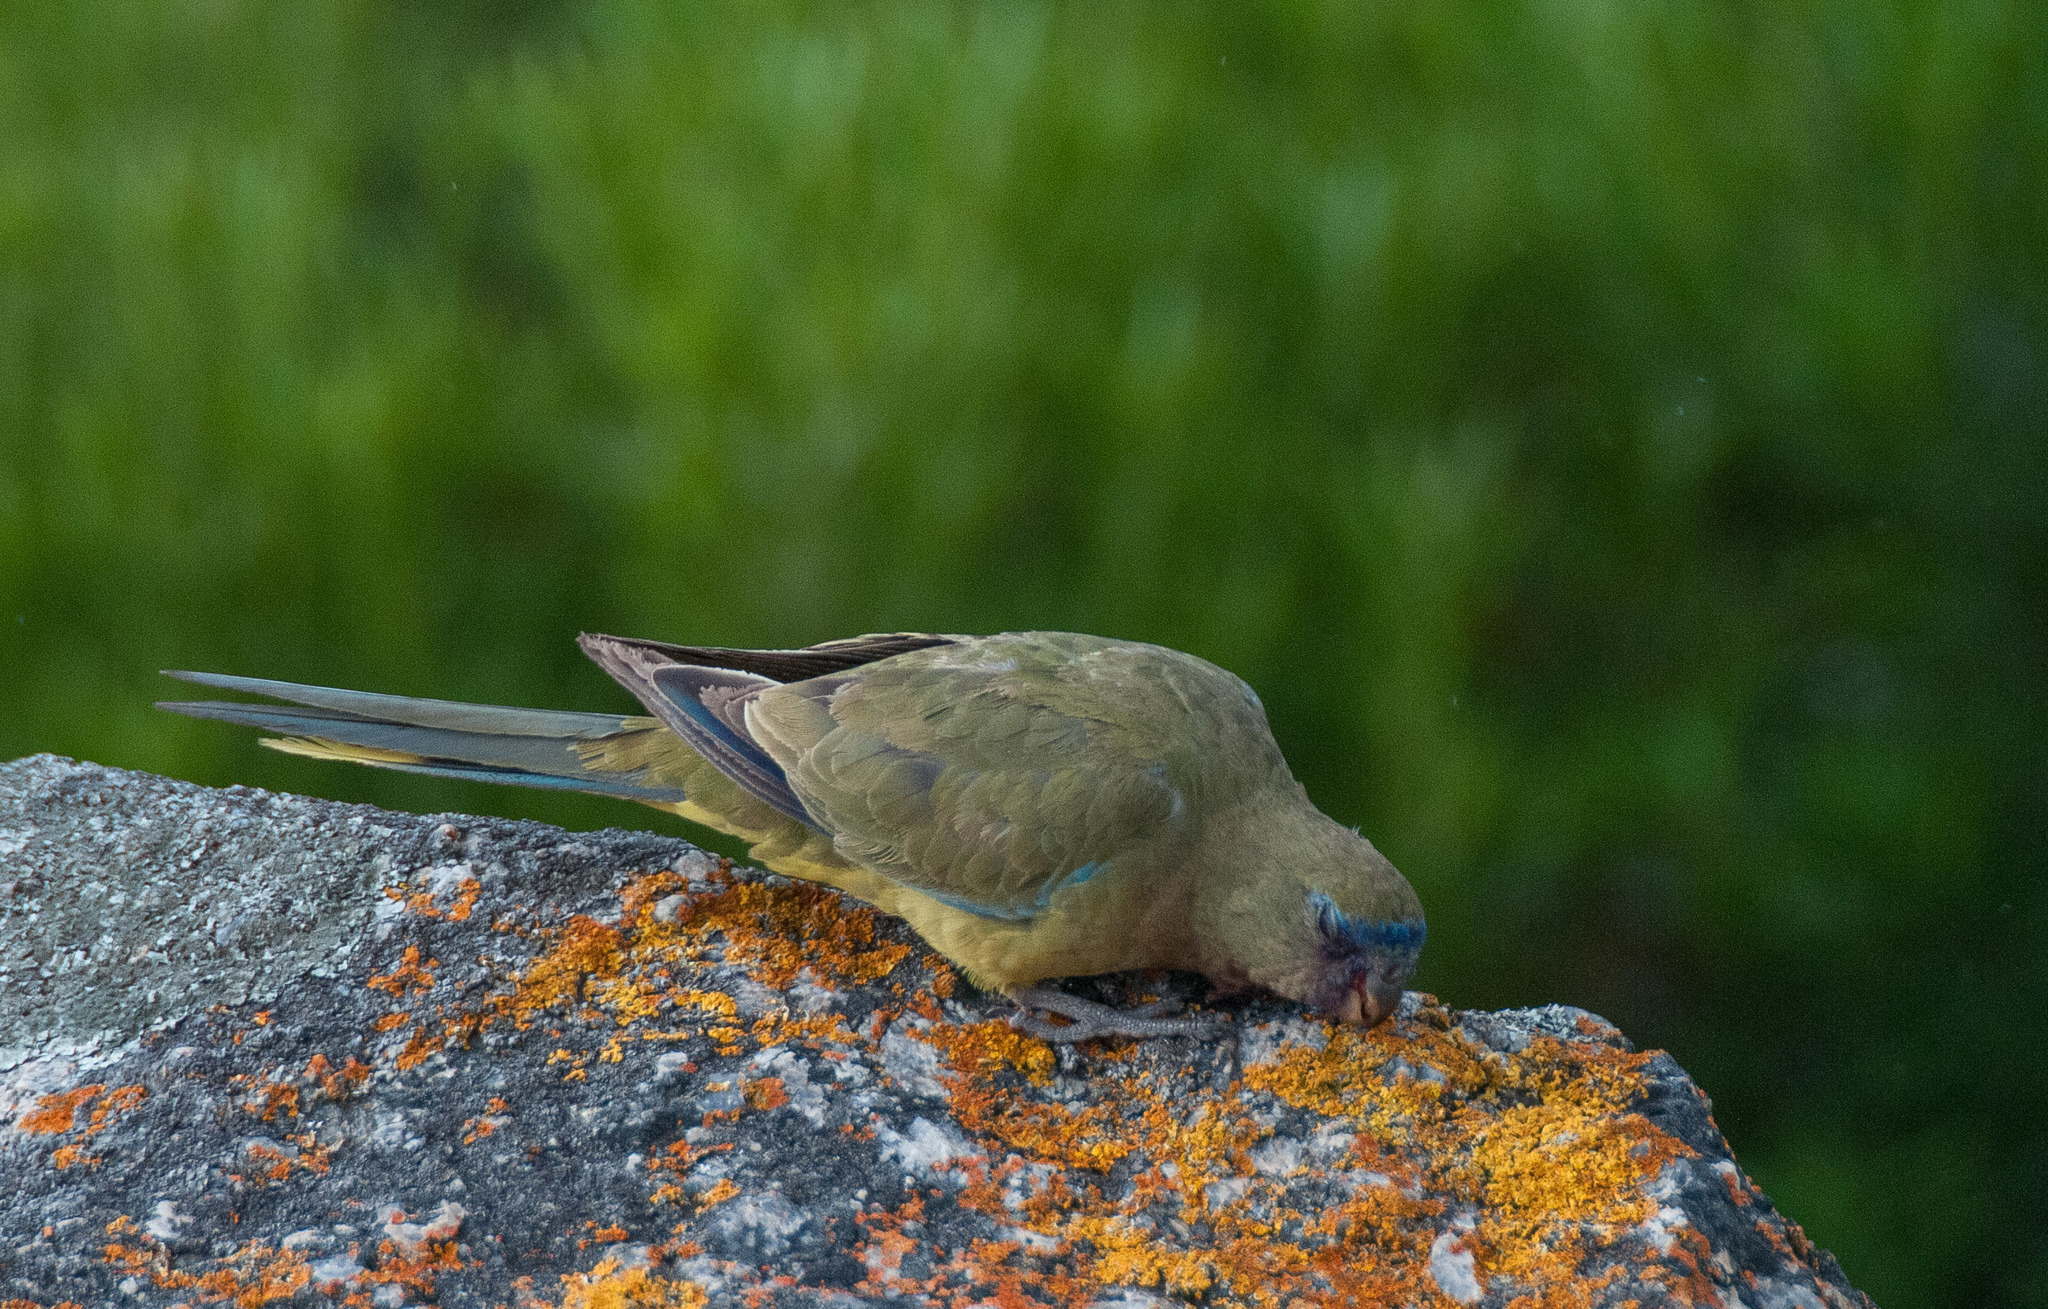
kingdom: Animalia
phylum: Chordata
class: Aves
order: Psittaciformes
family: Psittacidae
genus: Neophema
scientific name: Neophema petrophila
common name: Rock parrot
